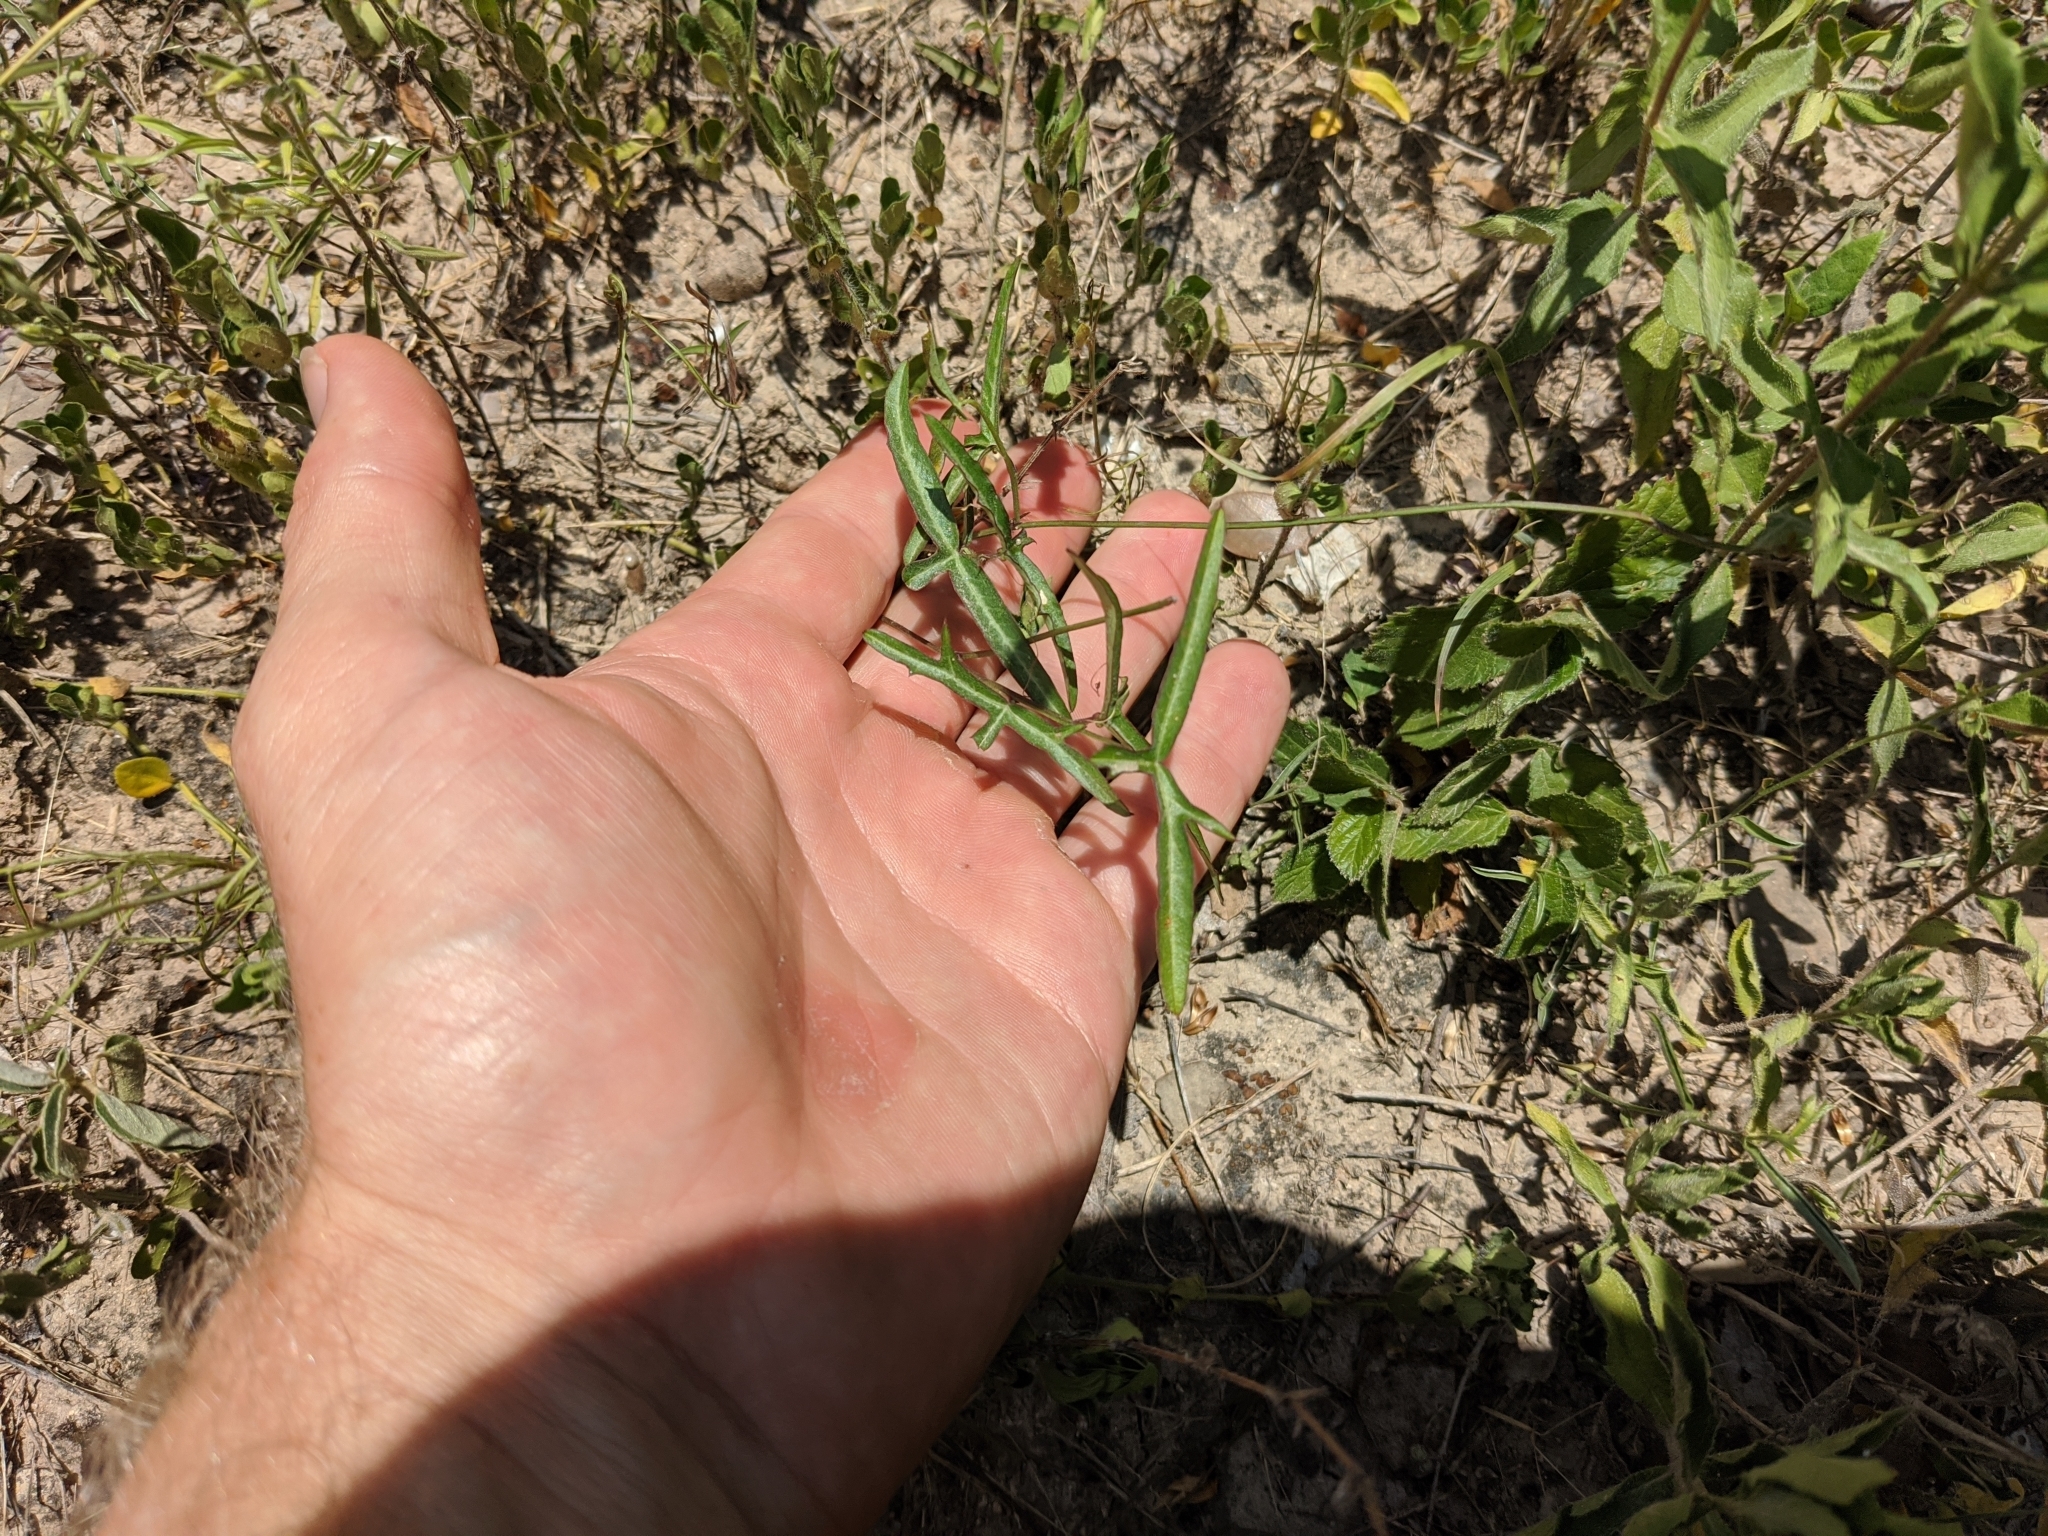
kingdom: Plantae
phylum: Tracheophyta
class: Magnoliopsida
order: Malpighiales
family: Passifloraceae
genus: Passiflora
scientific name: Passiflora tenuiloba
